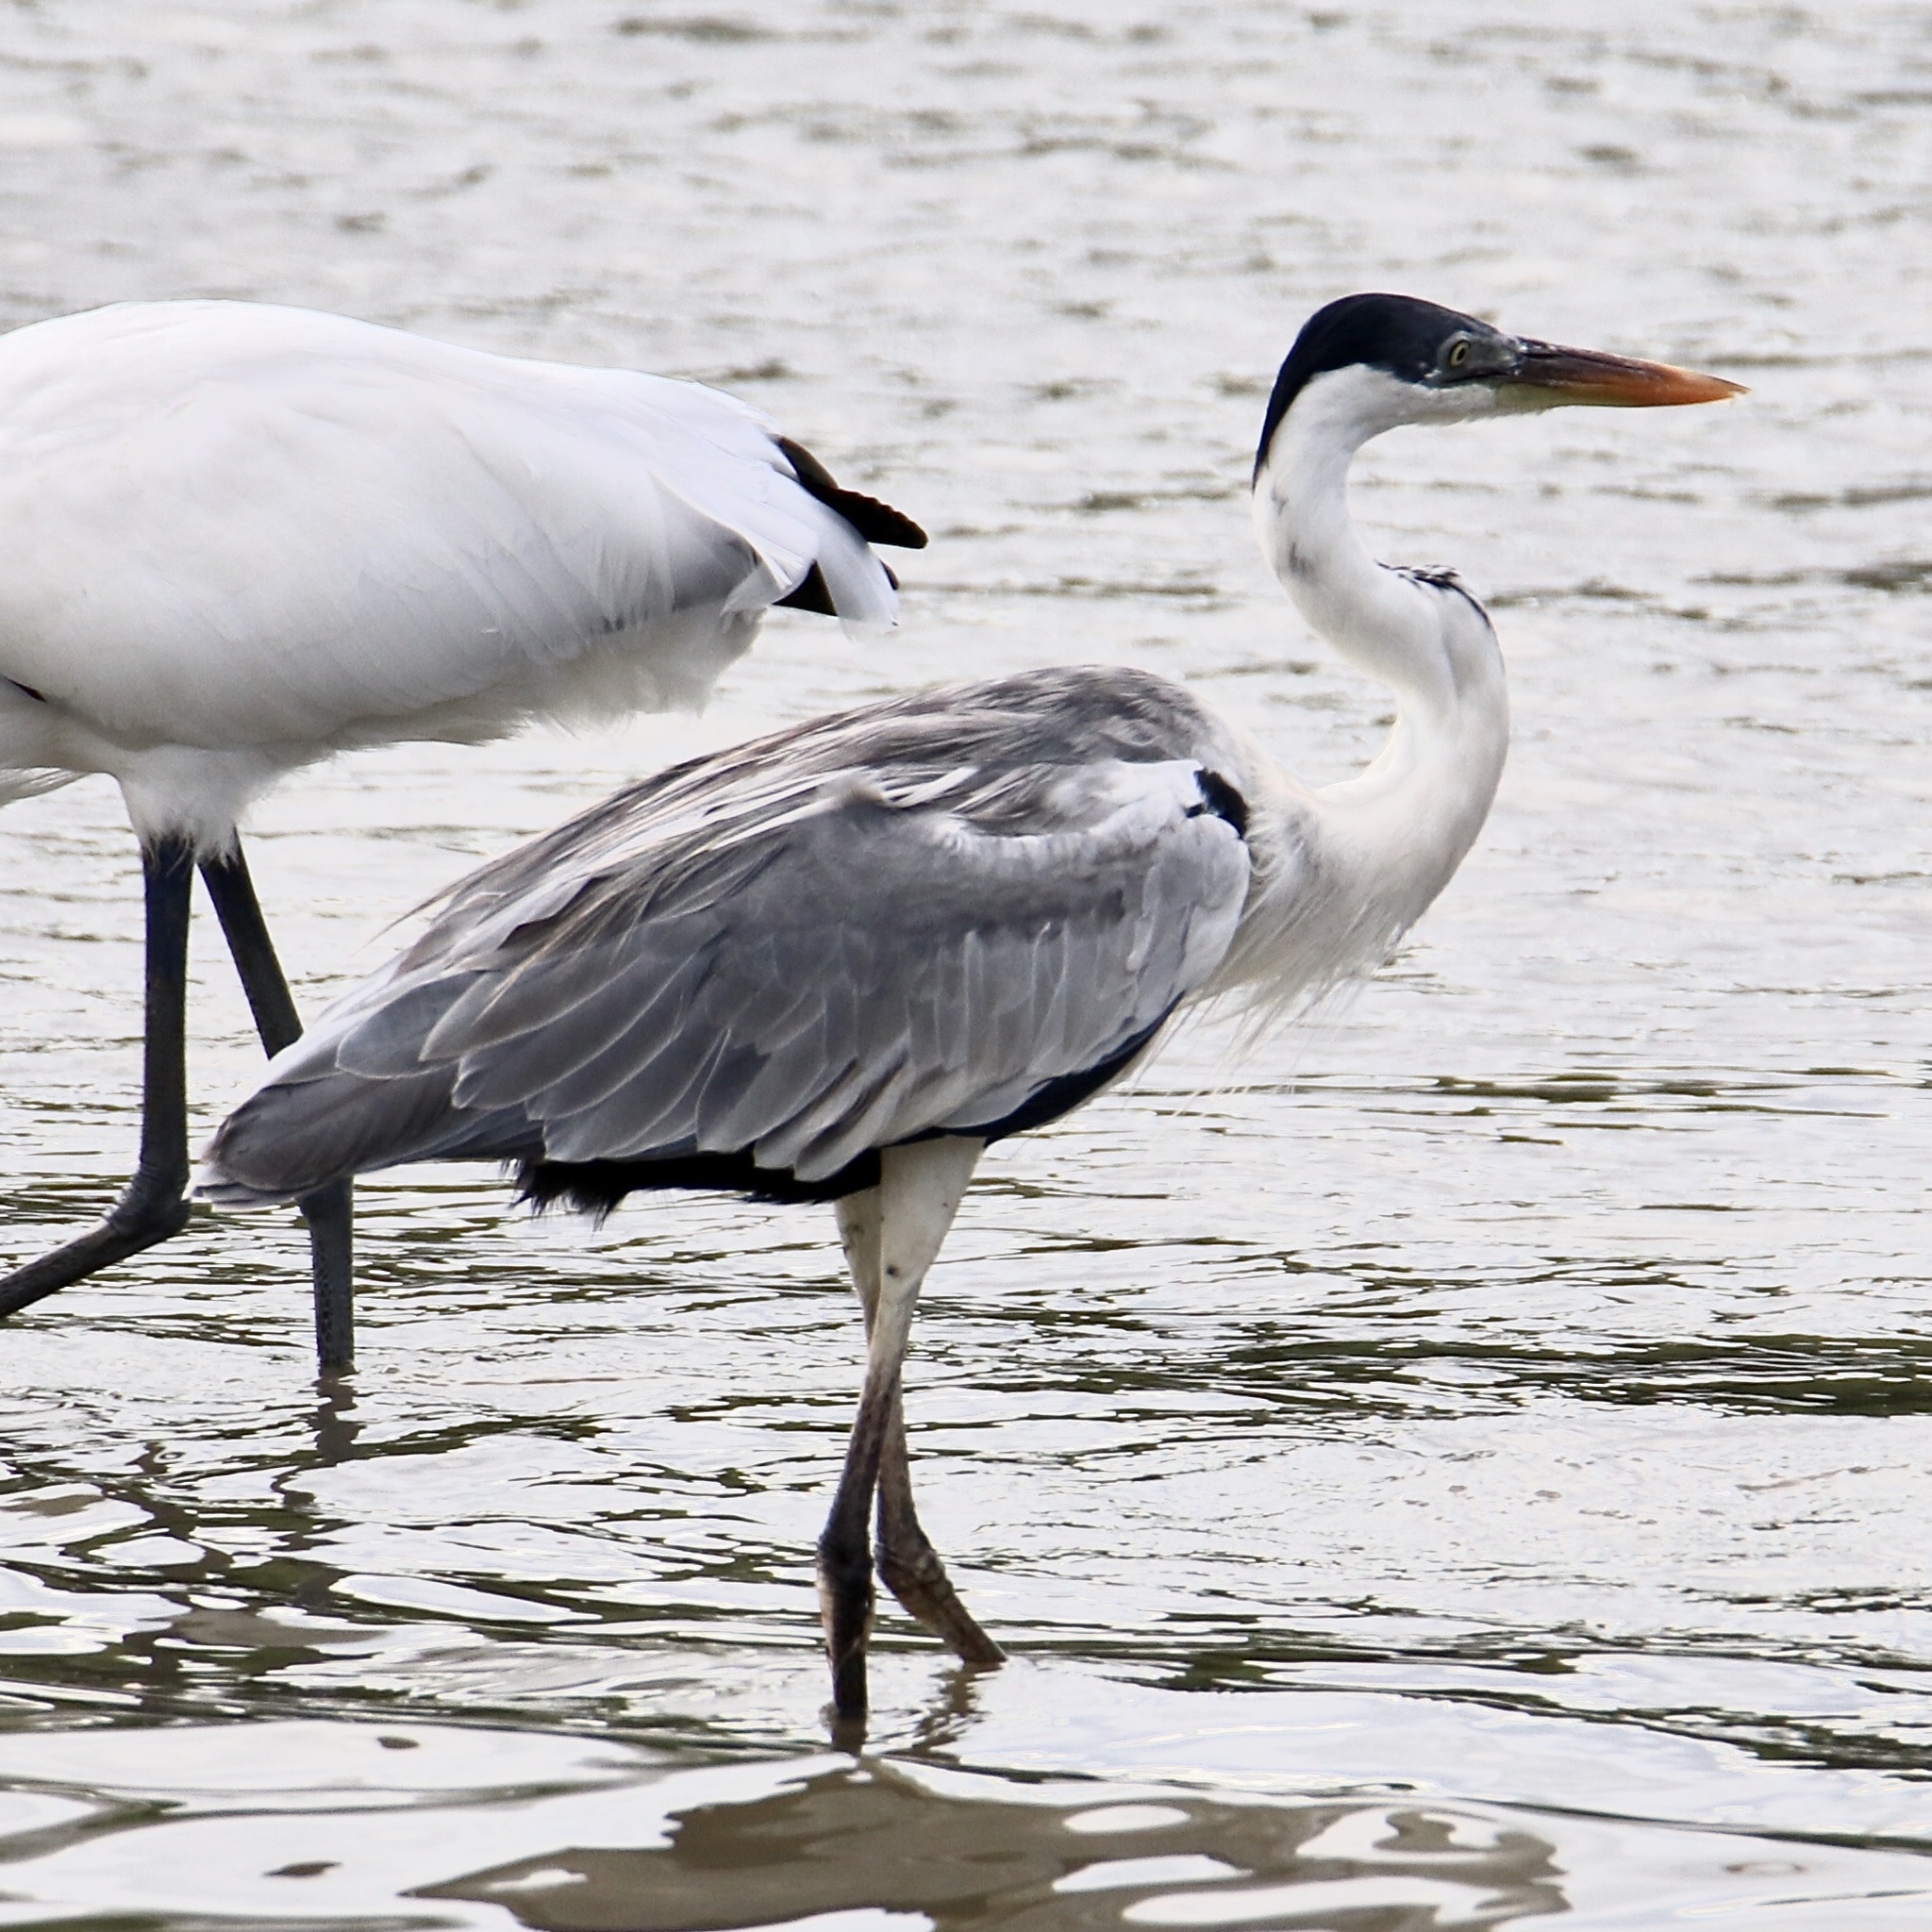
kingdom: Animalia
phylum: Chordata
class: Aves
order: Pelecaniformes
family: Ardeidae
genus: Ardea
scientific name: Ardea cocoi
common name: Cocoi heron
